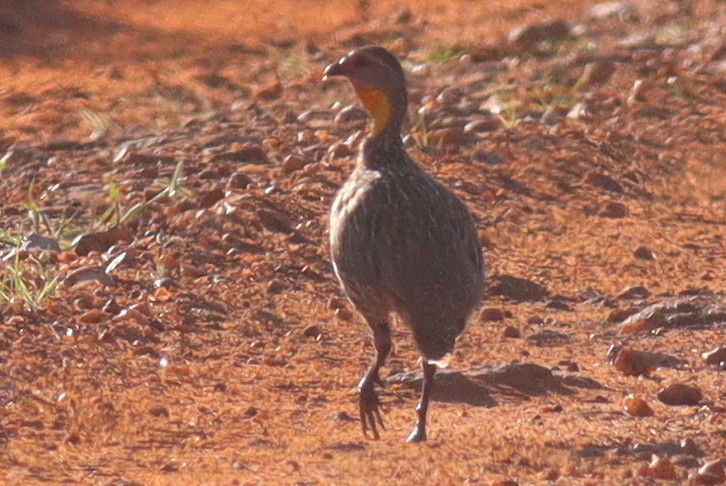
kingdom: Animalia
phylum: Chordata
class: Aves
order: Galliformes
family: Phasianidae
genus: Pternistis
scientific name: Pternistis leucoscepus
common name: Yellow-necked spurfowl
